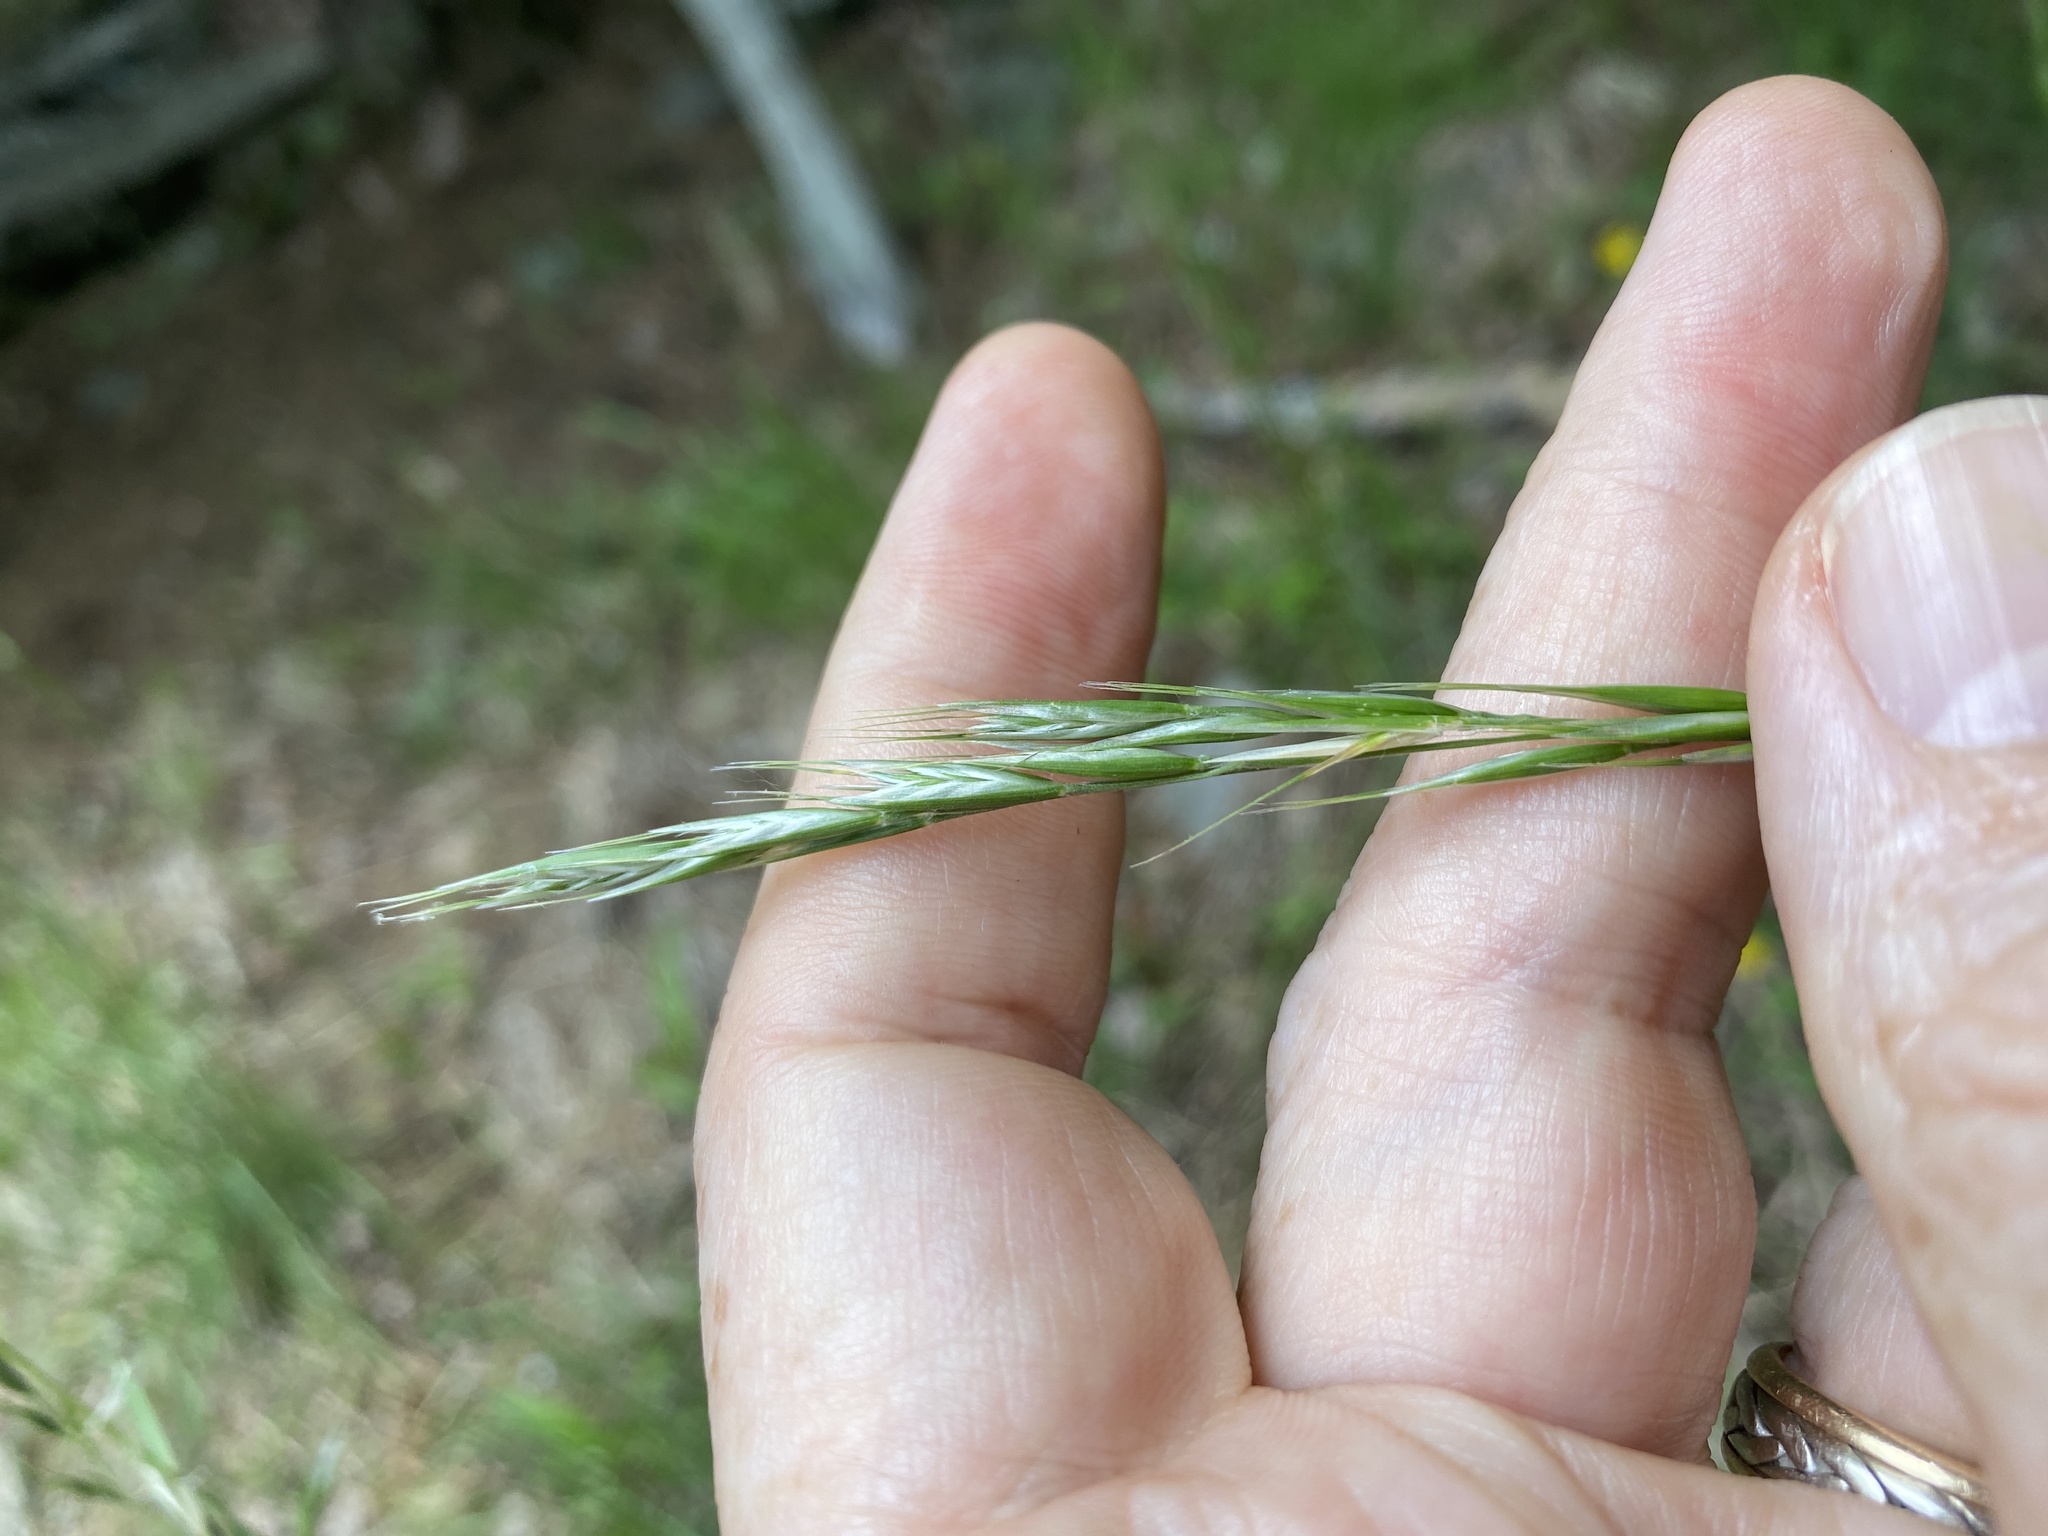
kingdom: Plantae
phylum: Tracheophyta
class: Liliopsida
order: Poales
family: Poaceae
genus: Danthonia
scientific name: Danthonia sericea
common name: Downy danthonia
